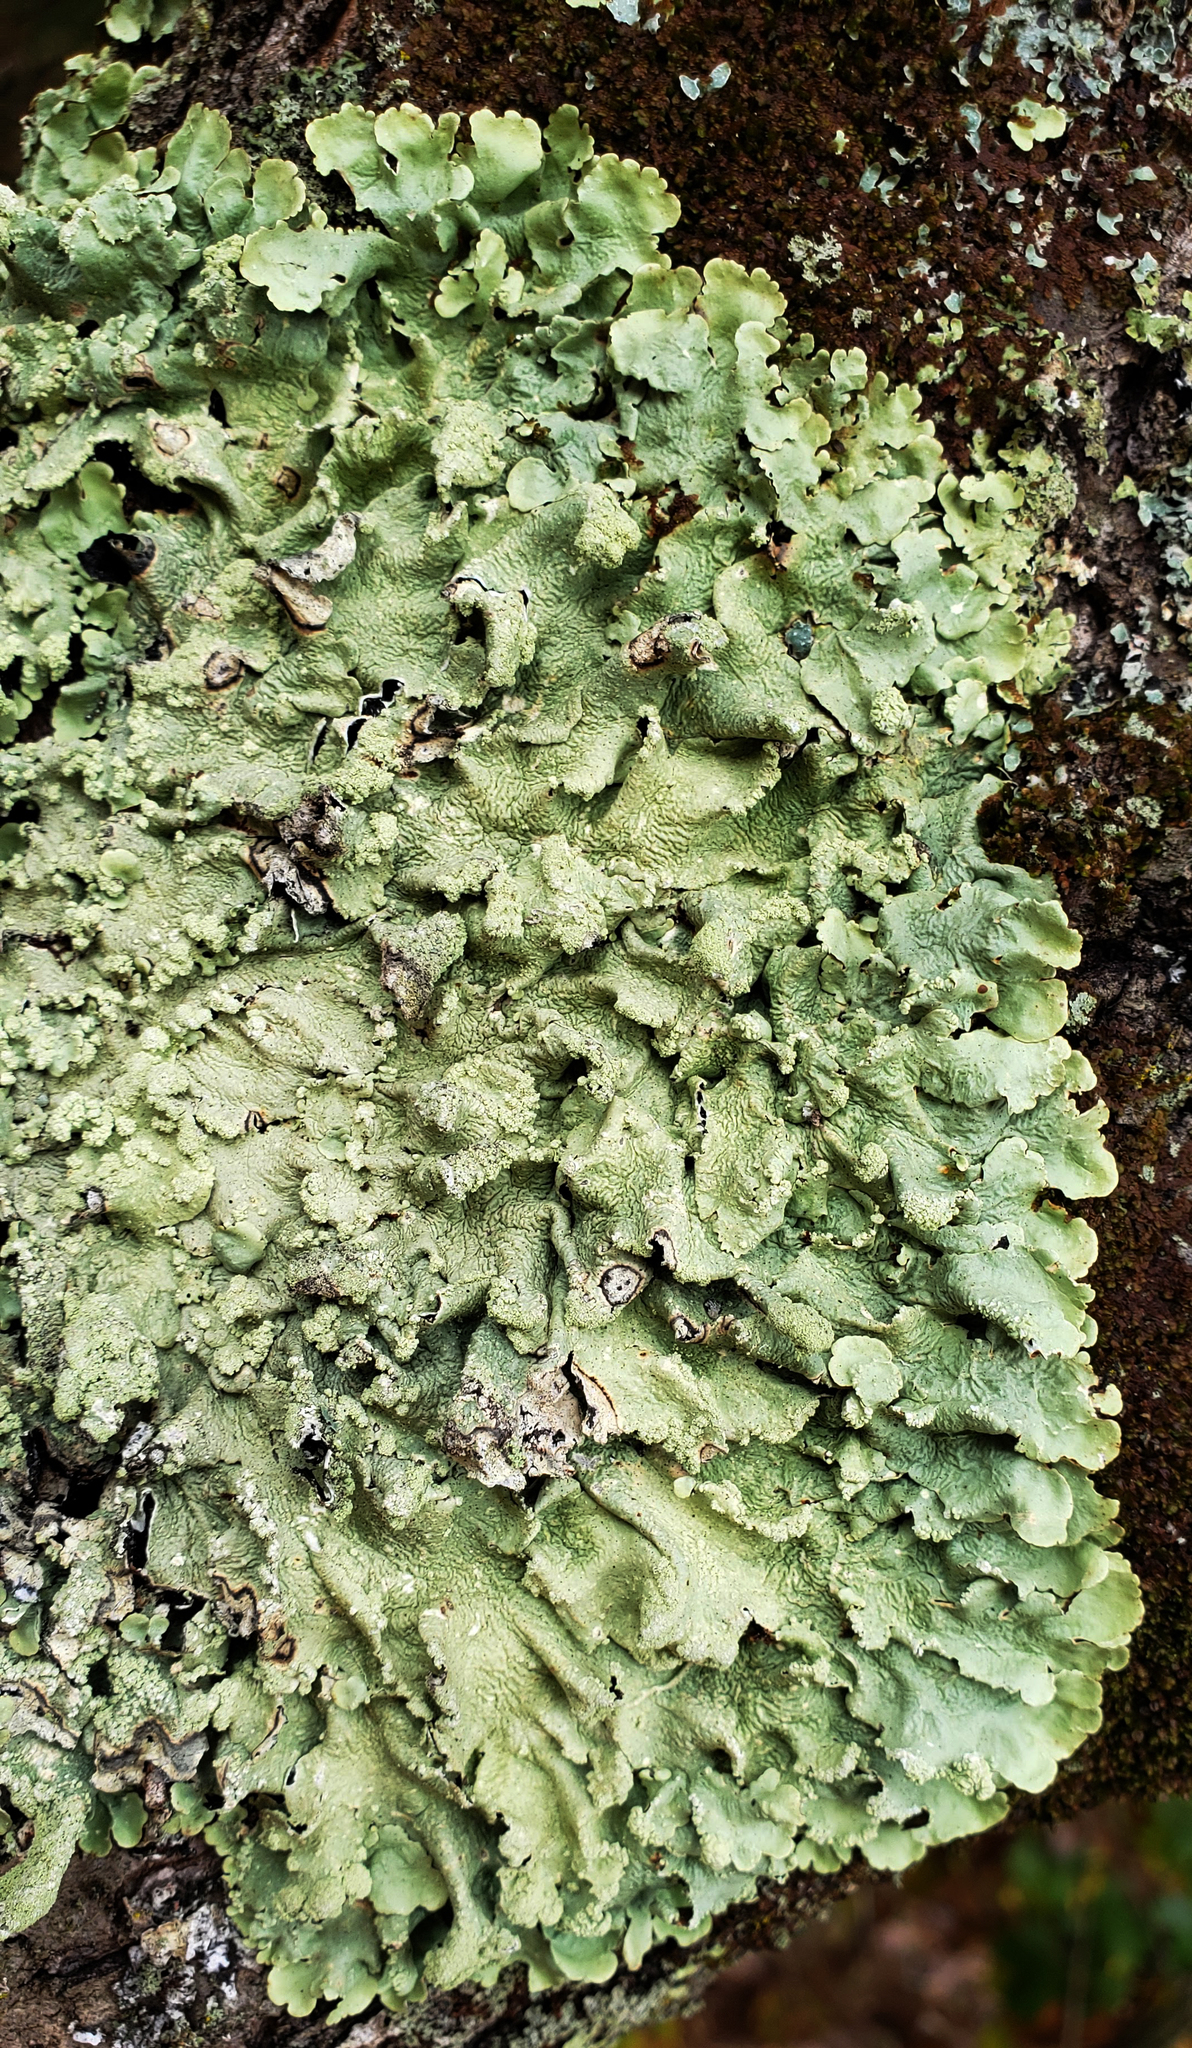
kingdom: Fungi
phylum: Ascomycota
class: Lecanoromycetes
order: Lecanorales
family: Parmeliaceae
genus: Flavoparmelia
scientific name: Flavoparmelia caperata
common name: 40-mile per hour lichen
